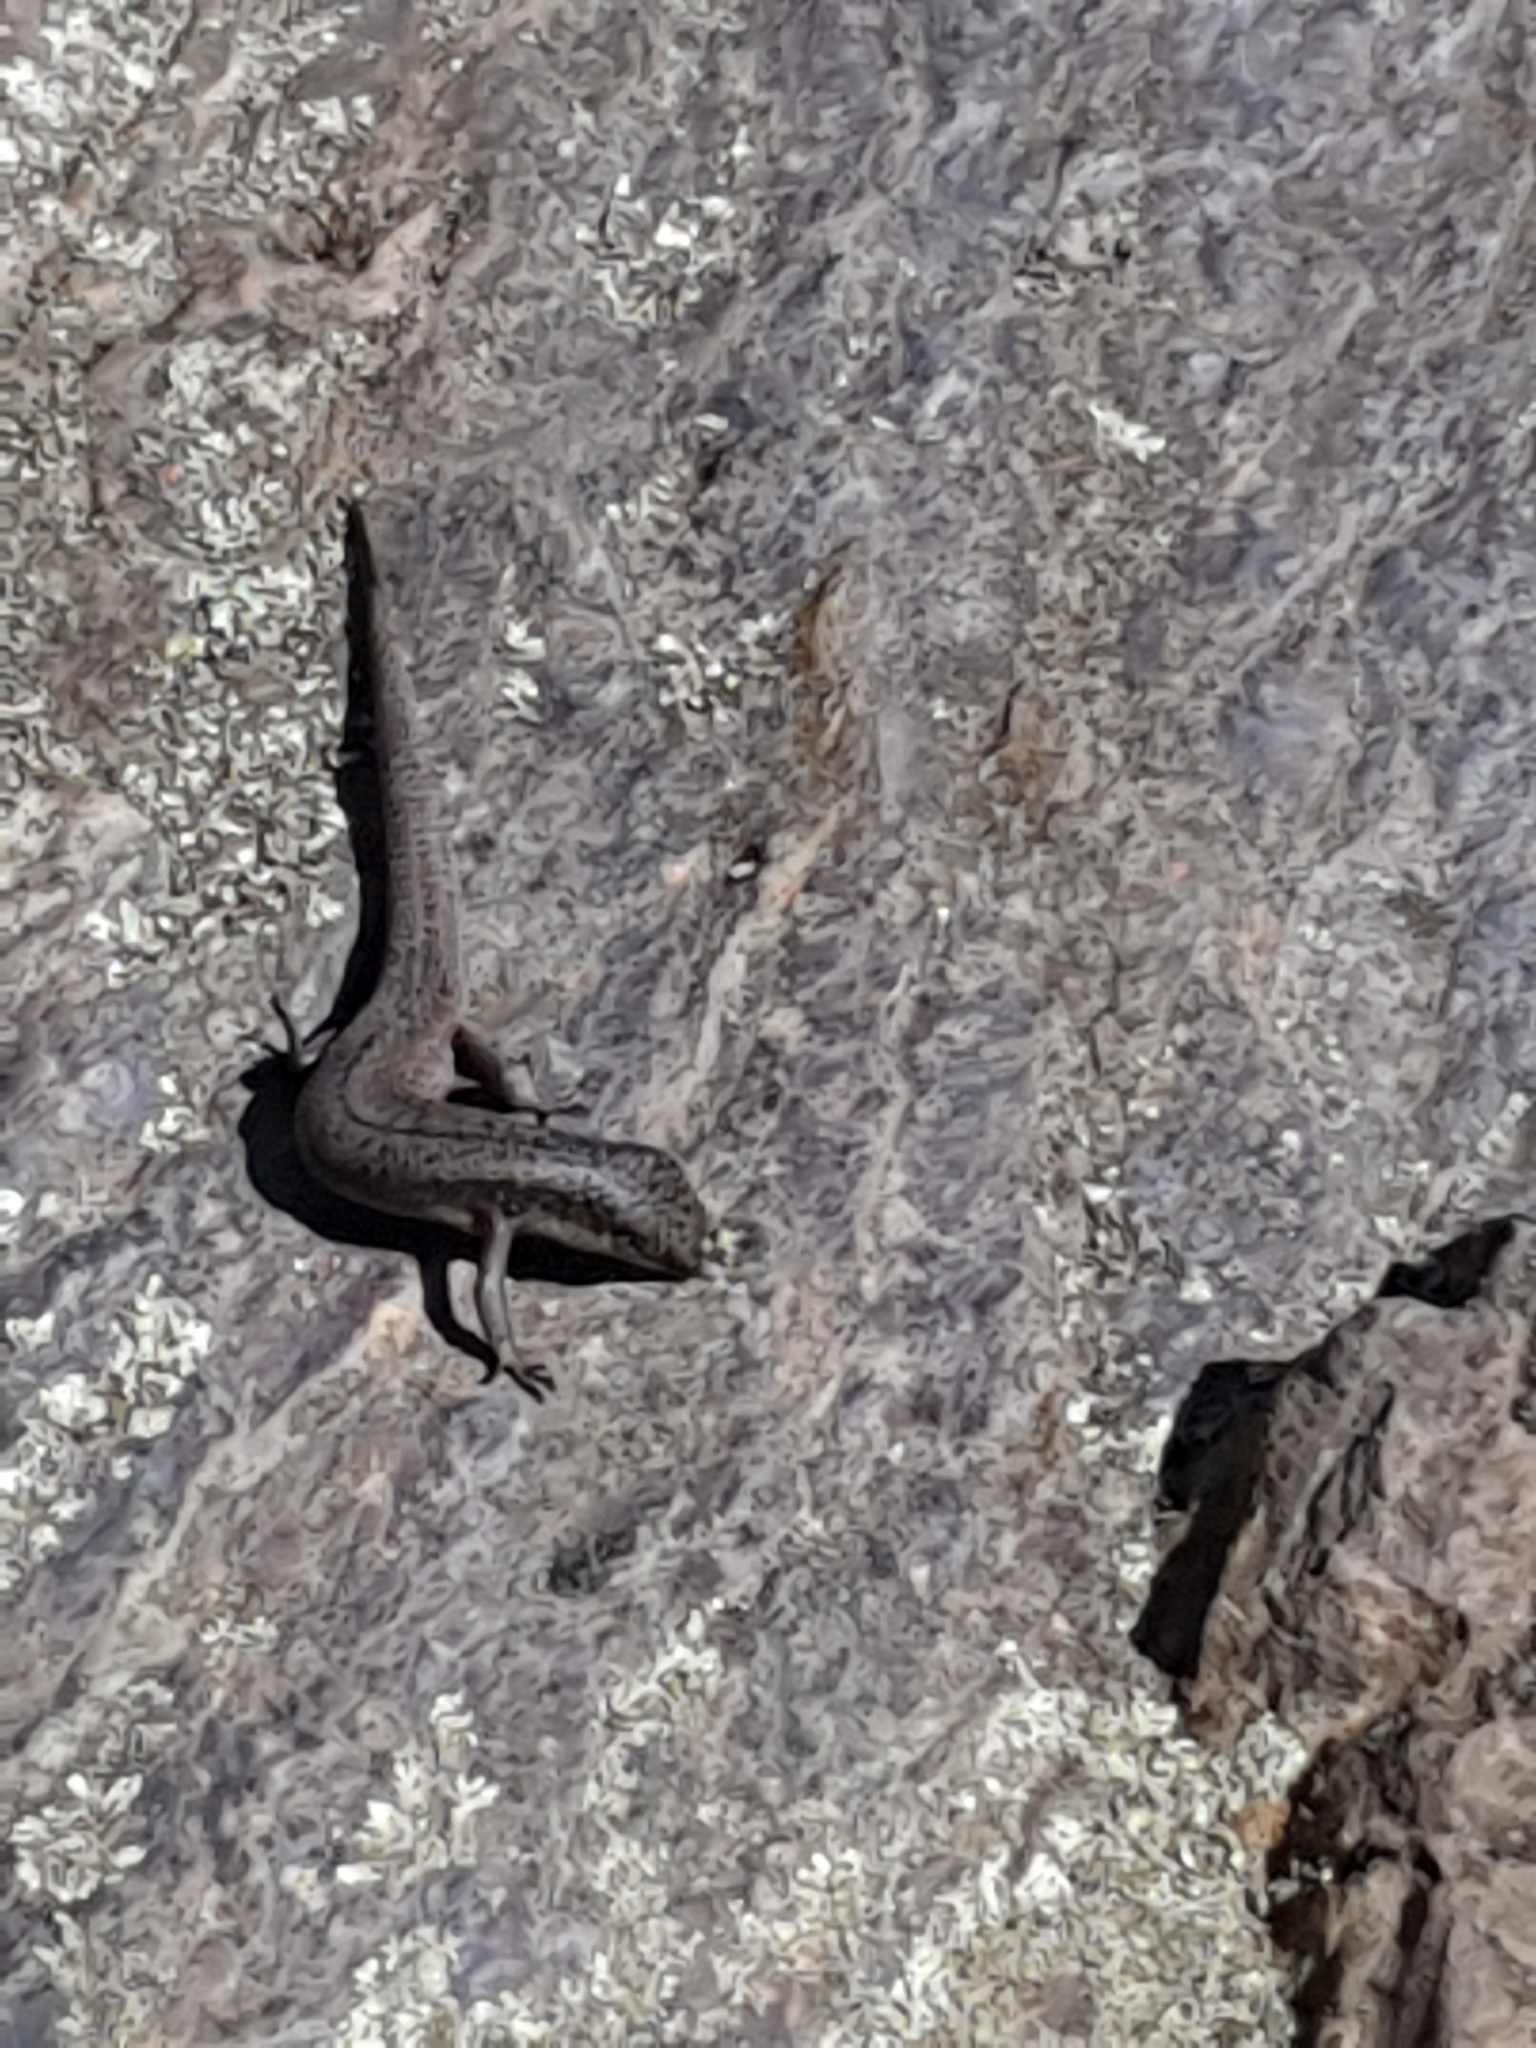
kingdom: Animalia
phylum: Chordata
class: Squamata
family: Scincidae
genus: Egernia
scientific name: Egernia napoleonis
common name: South-western crevice skink
